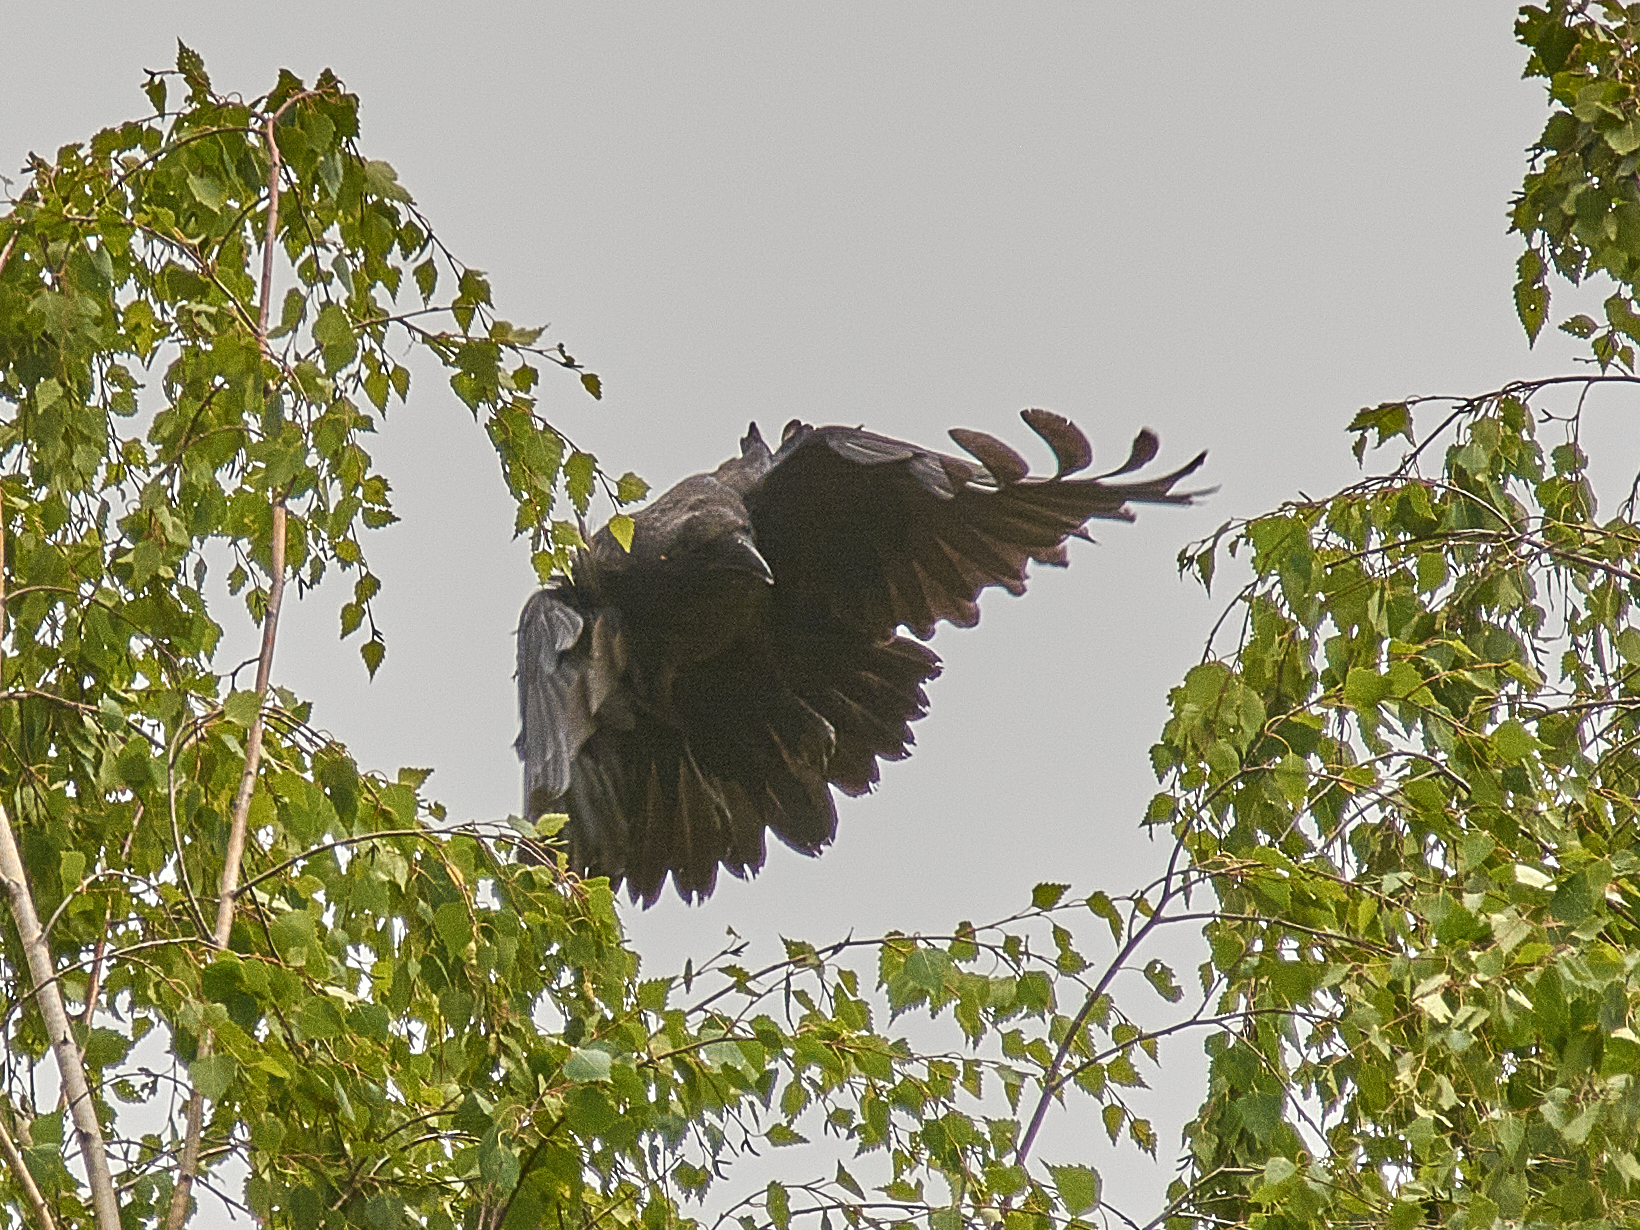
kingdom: Animalia
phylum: Chordata
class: Aves
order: Passeriformes
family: Corvidae
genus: Corvus
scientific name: Corvus corax
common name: Common raven
